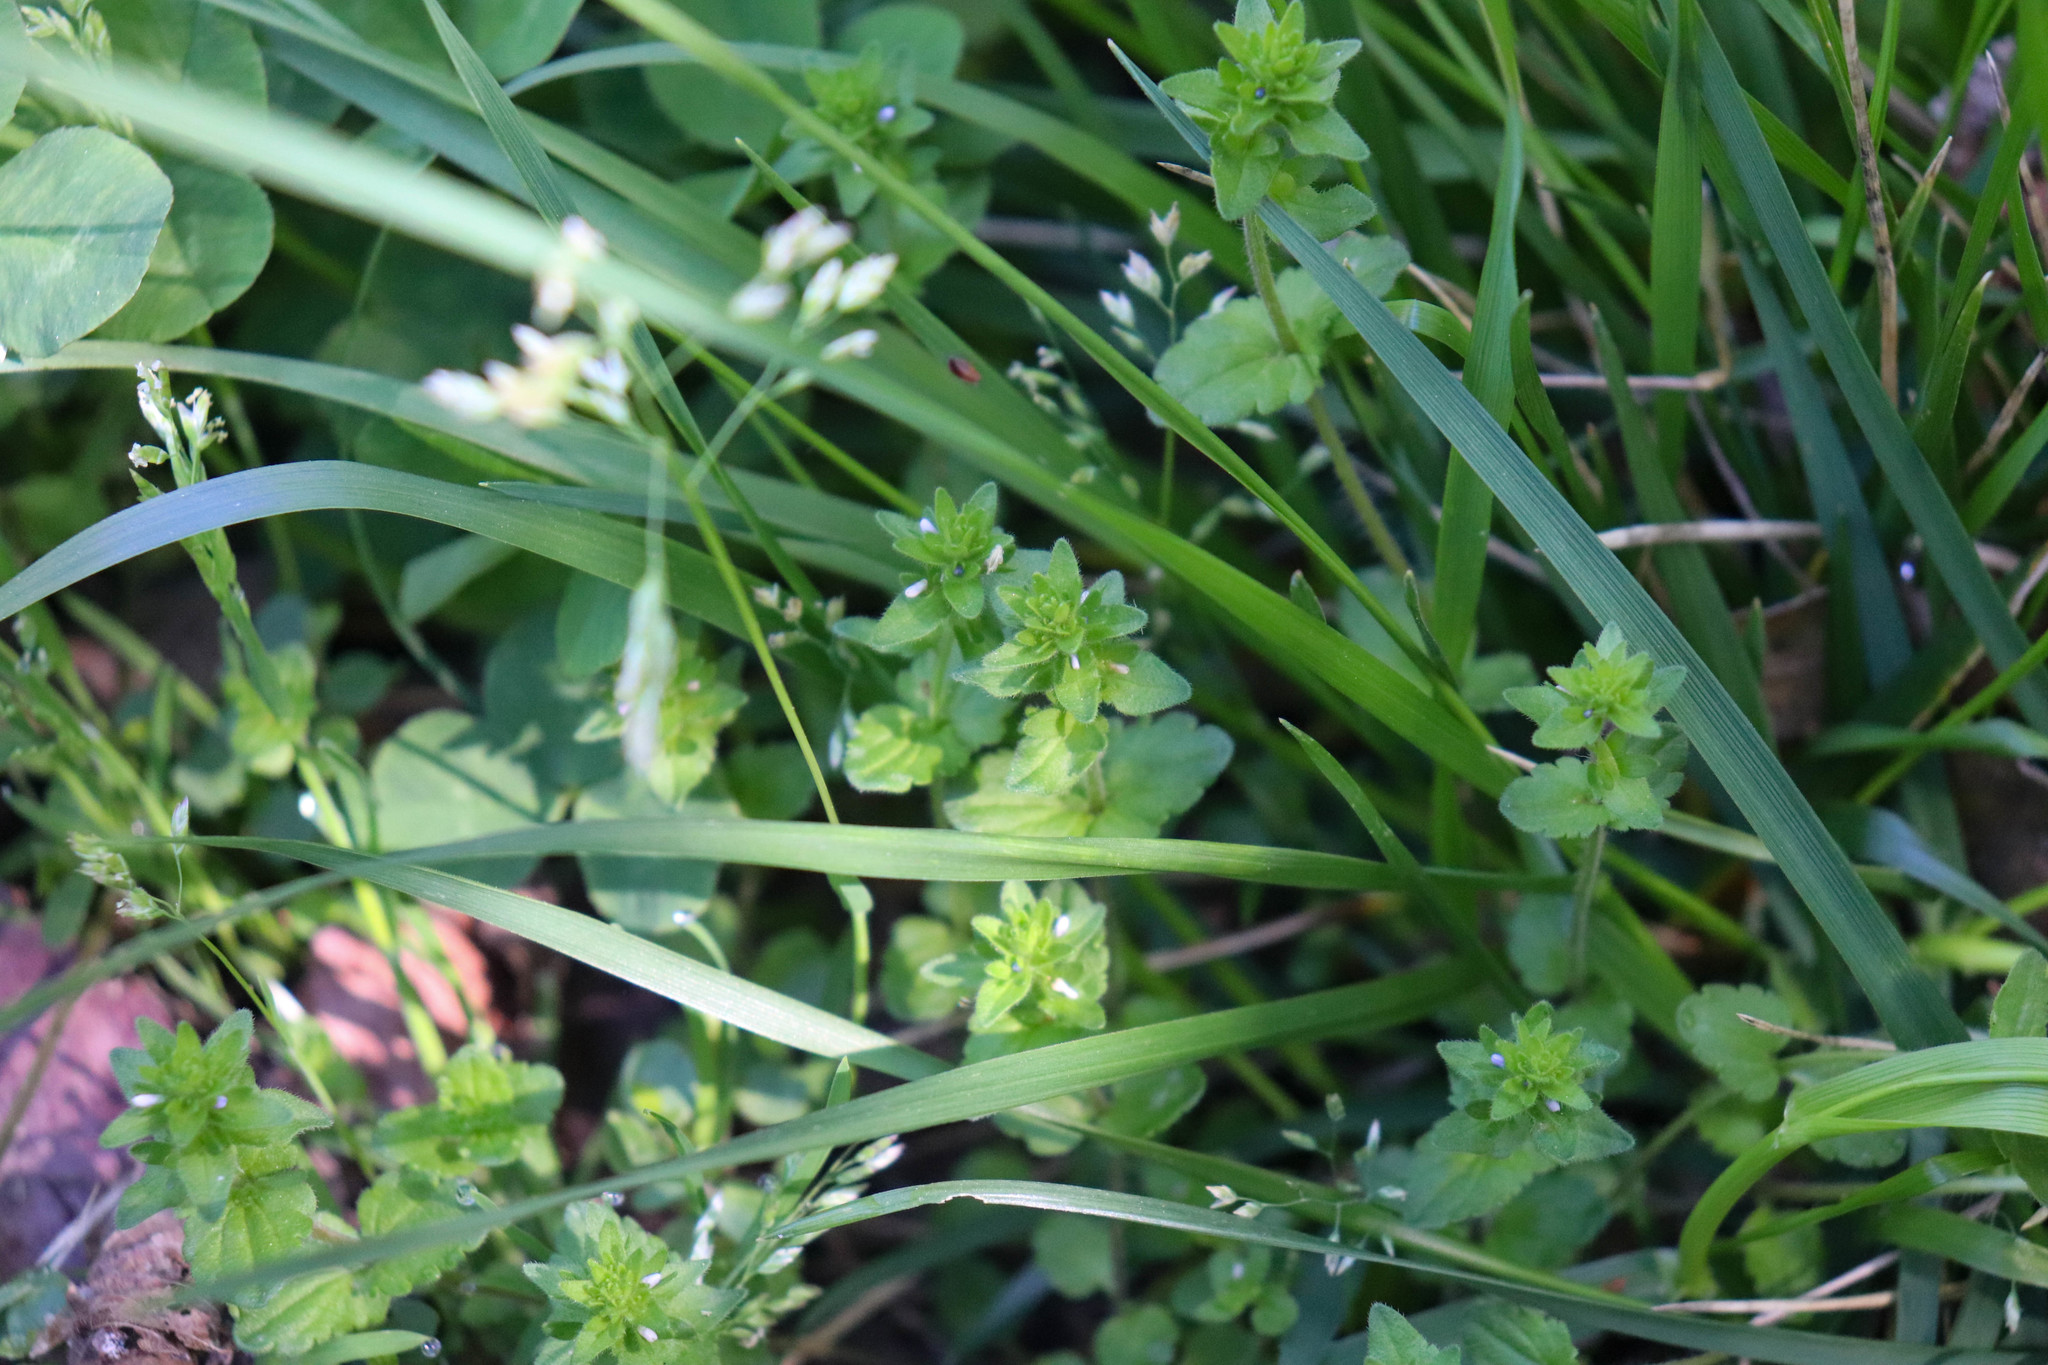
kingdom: Plantae
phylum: Tracheophyta
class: Magnoliopsida
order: Lamiales
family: Plantaginaceae
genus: Veronica
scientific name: Veronica arvensis
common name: Corn speedwell
